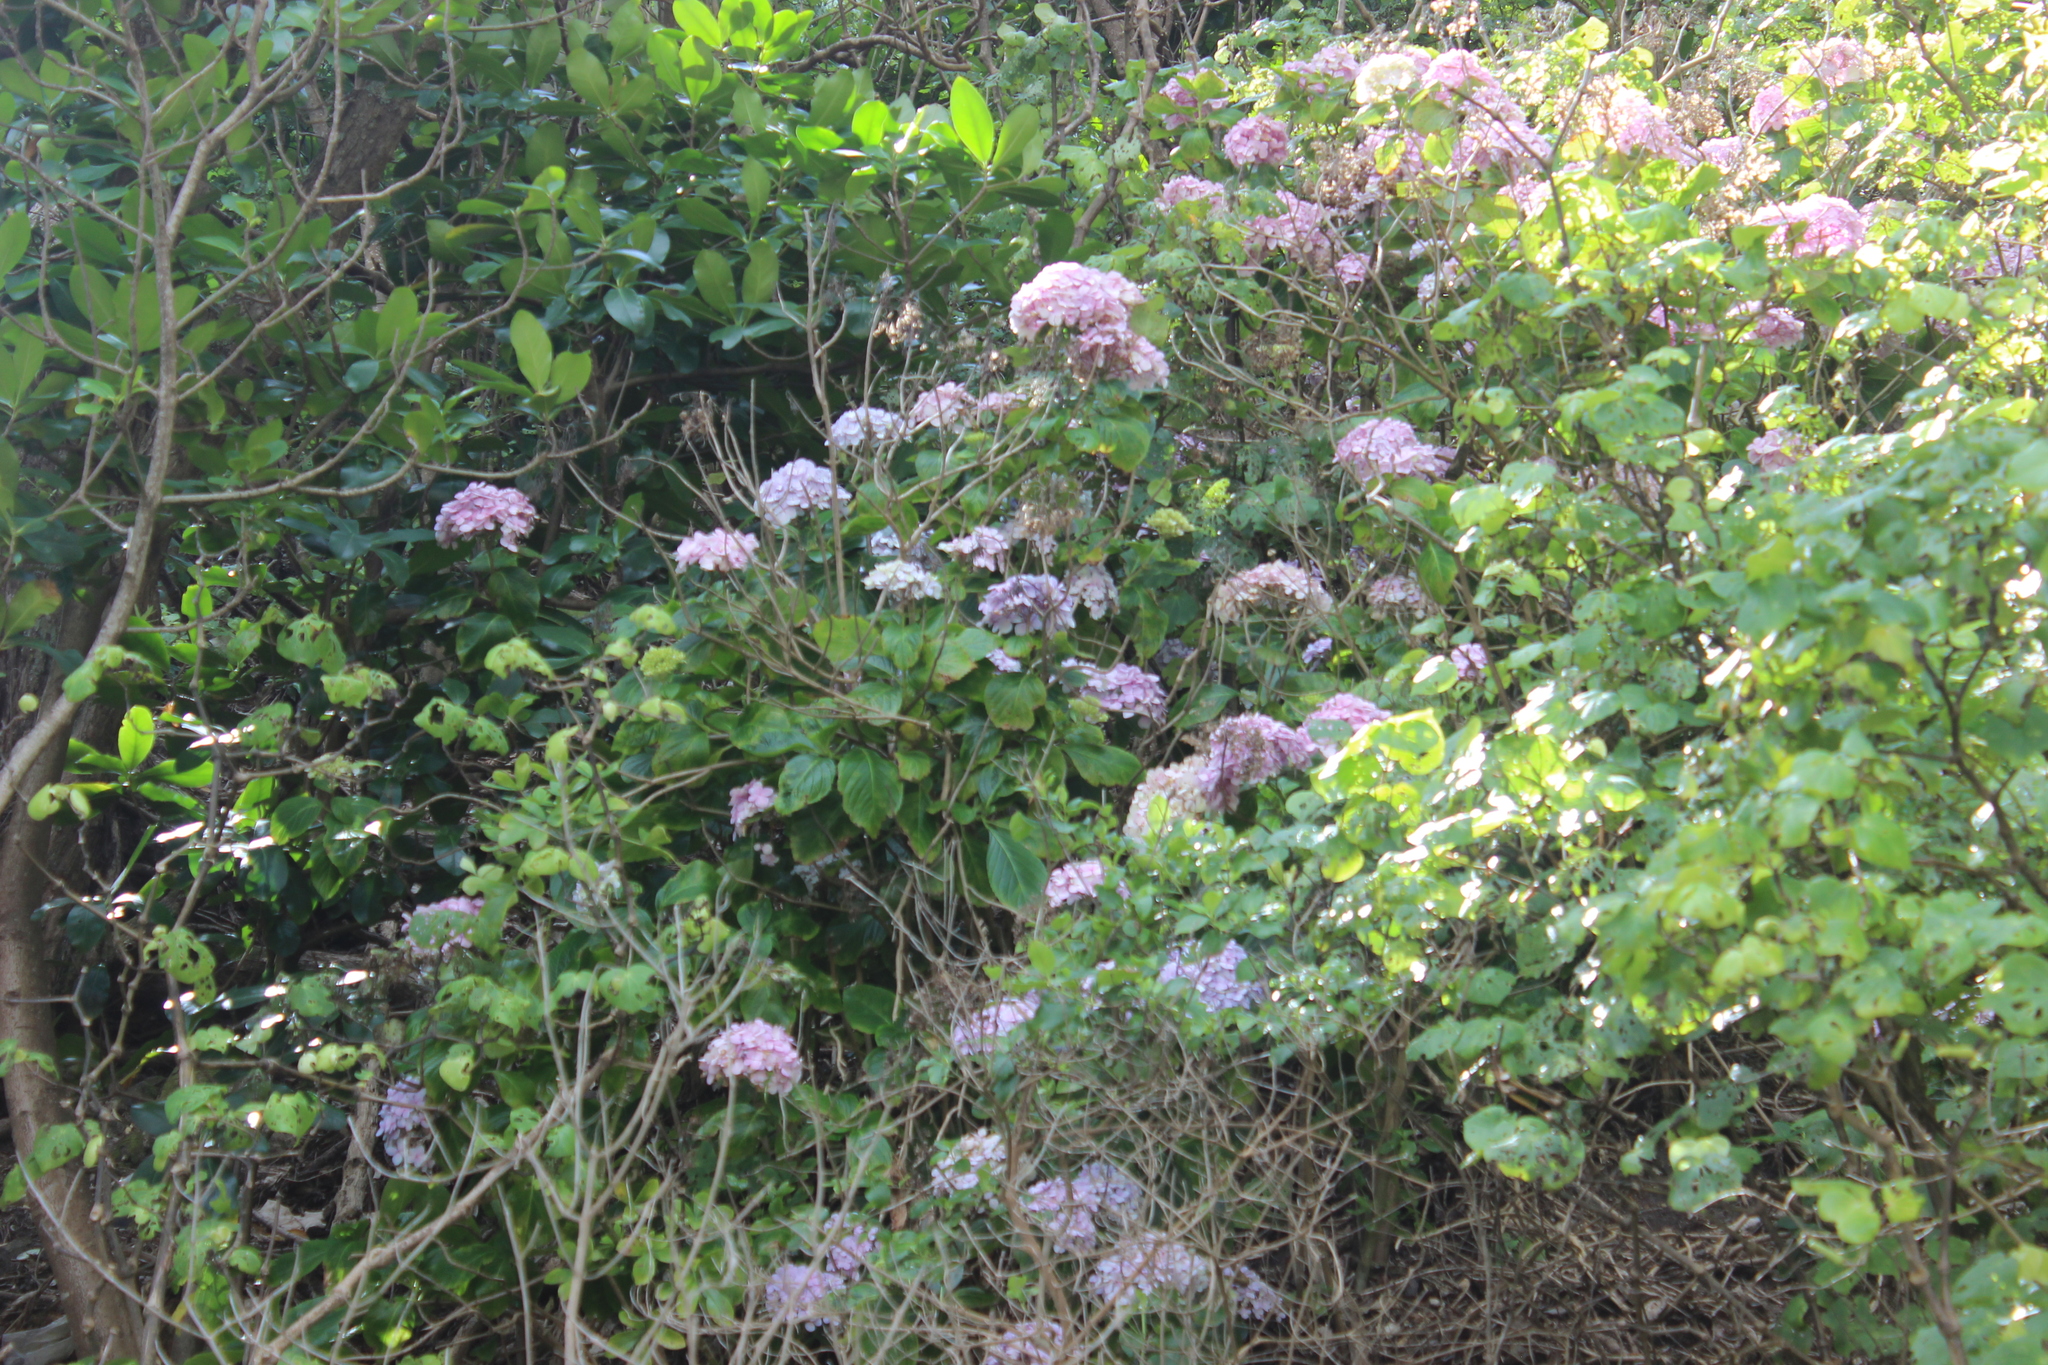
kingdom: Plantae
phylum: Tracheophyta
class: Magnoliopsida
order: Cornales
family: Hydrangeaceae
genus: Hydrangea
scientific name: Hydrangea macrophylla
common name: Hydrangea
